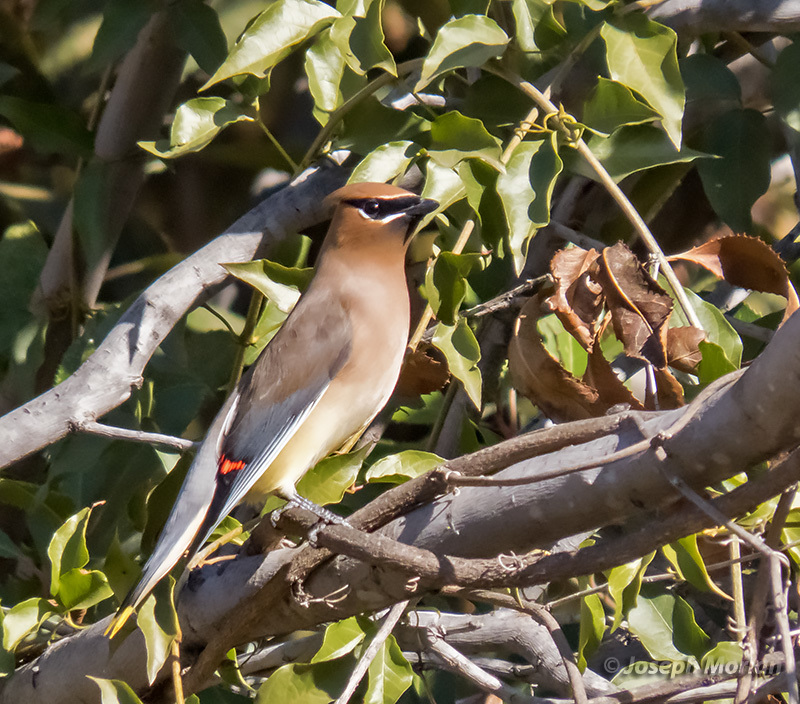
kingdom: Animalia
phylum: Chordata
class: Aves
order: Passeriformes
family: Bombycillidae
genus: Bombycilla
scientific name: Bombycilla cedrorum
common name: Cedar waxwing
